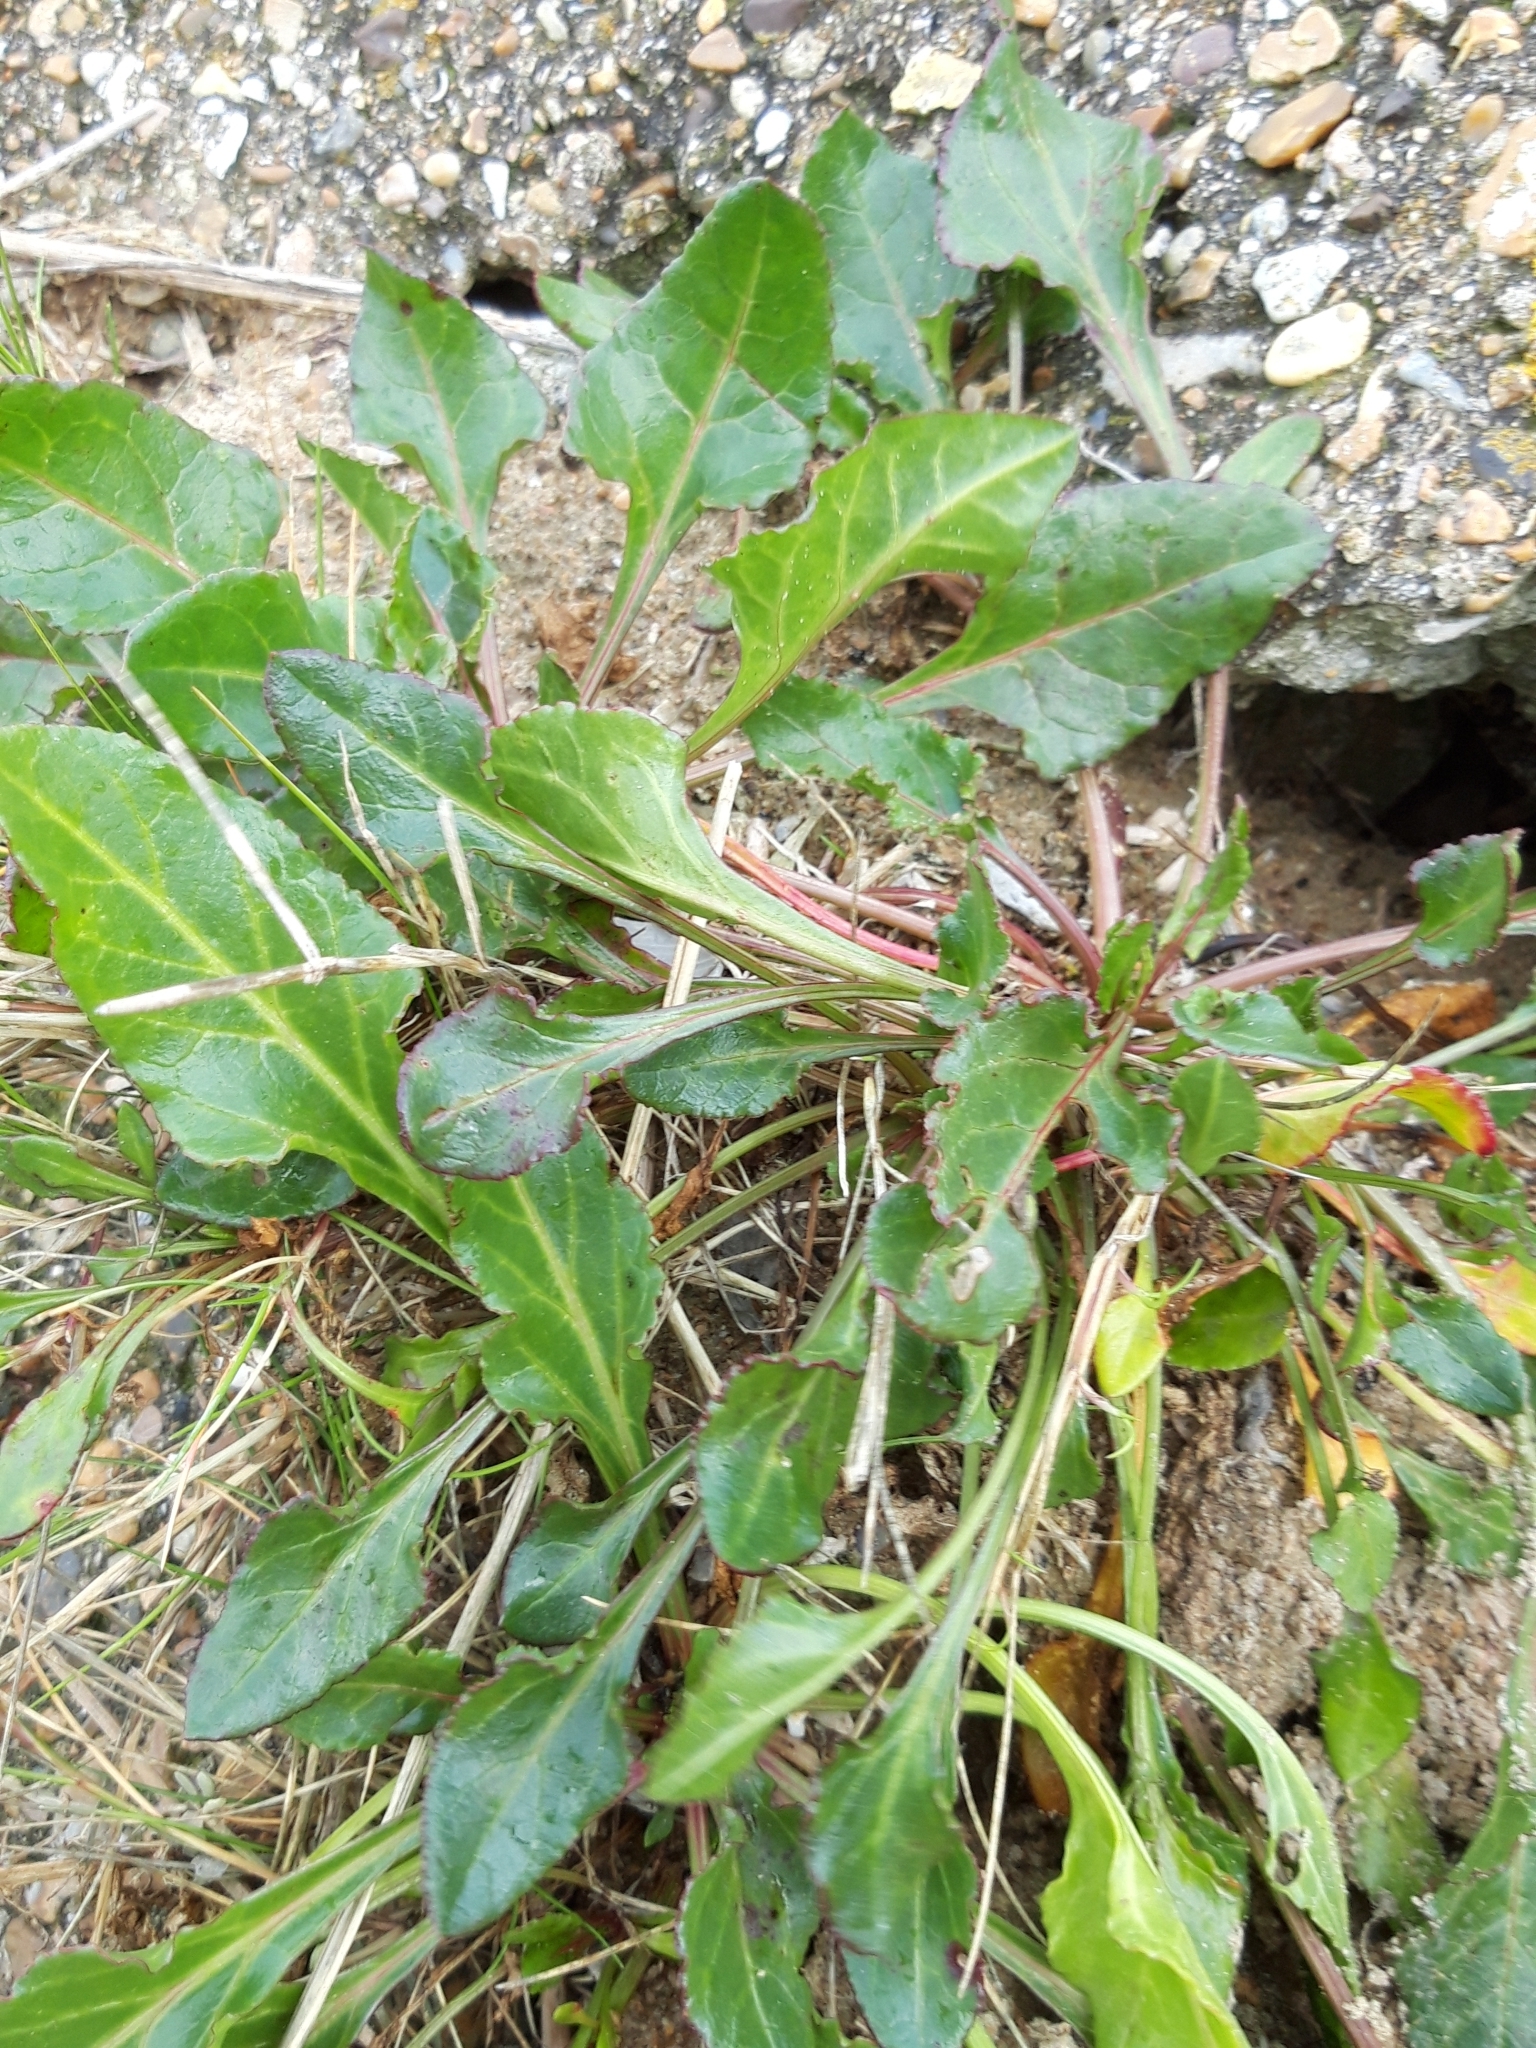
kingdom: Plantae
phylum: Tracheophyta
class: Magnoliopsida
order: Caryophyllales
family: Amaranthaceae
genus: Beta
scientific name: Beta vulgaris
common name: Beet
